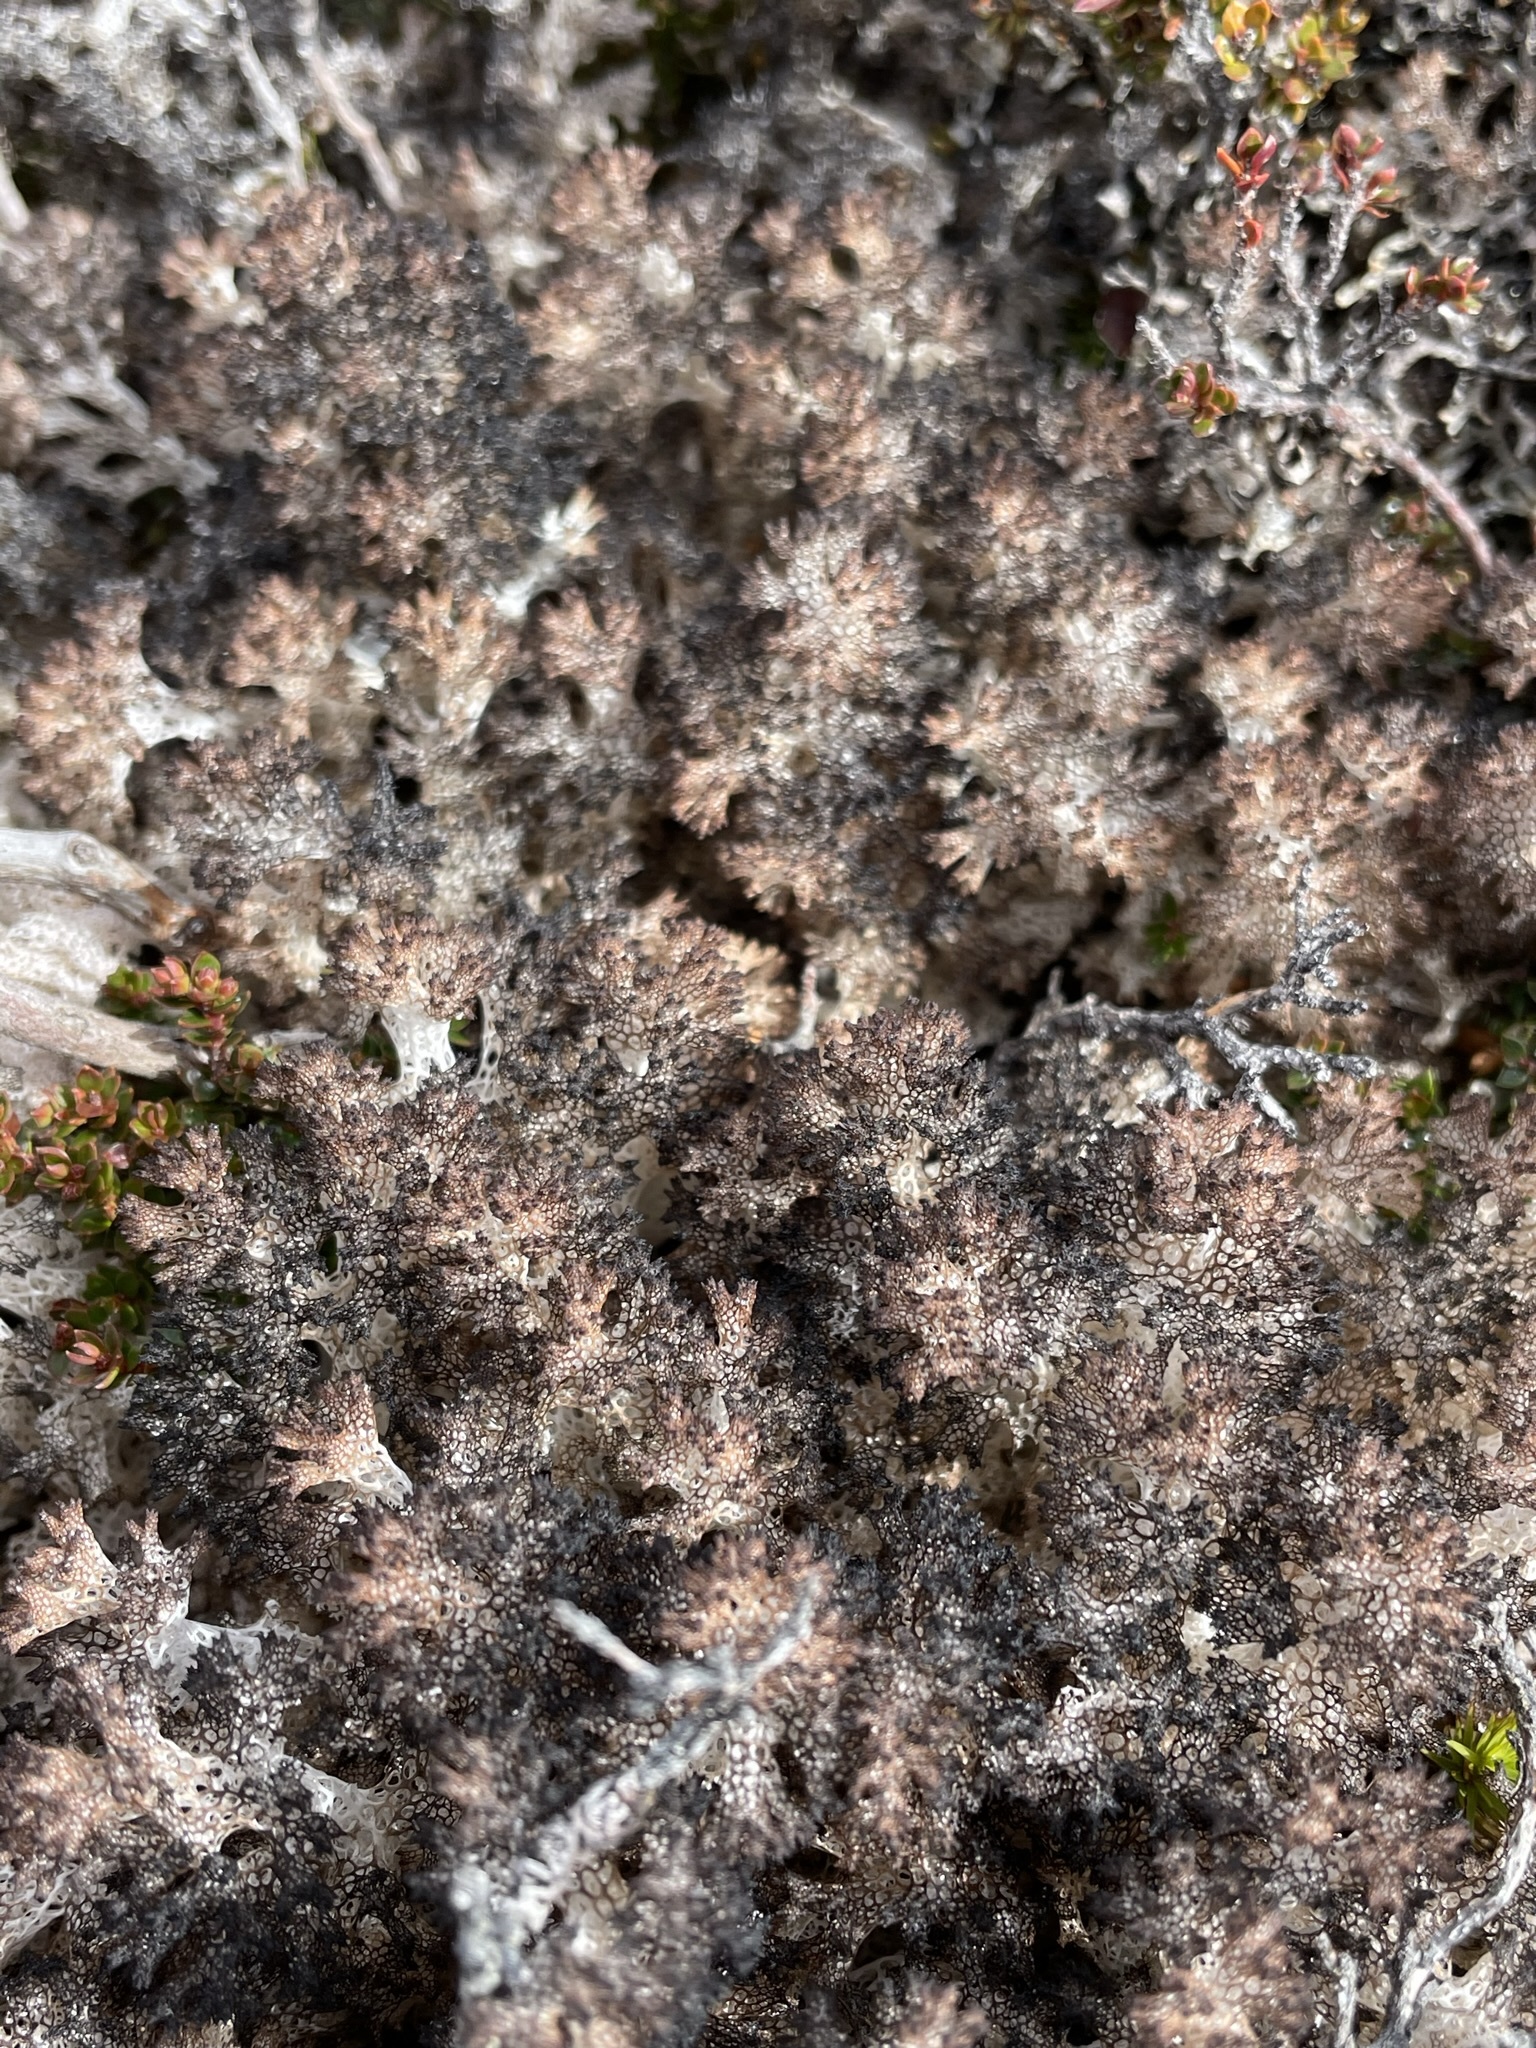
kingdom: Fungi
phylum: Ascomycota
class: Lecanoromycetes
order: Lecanorales
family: Cladoniaceae
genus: Pulchrocladia
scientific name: Pulchrocladia retipora
